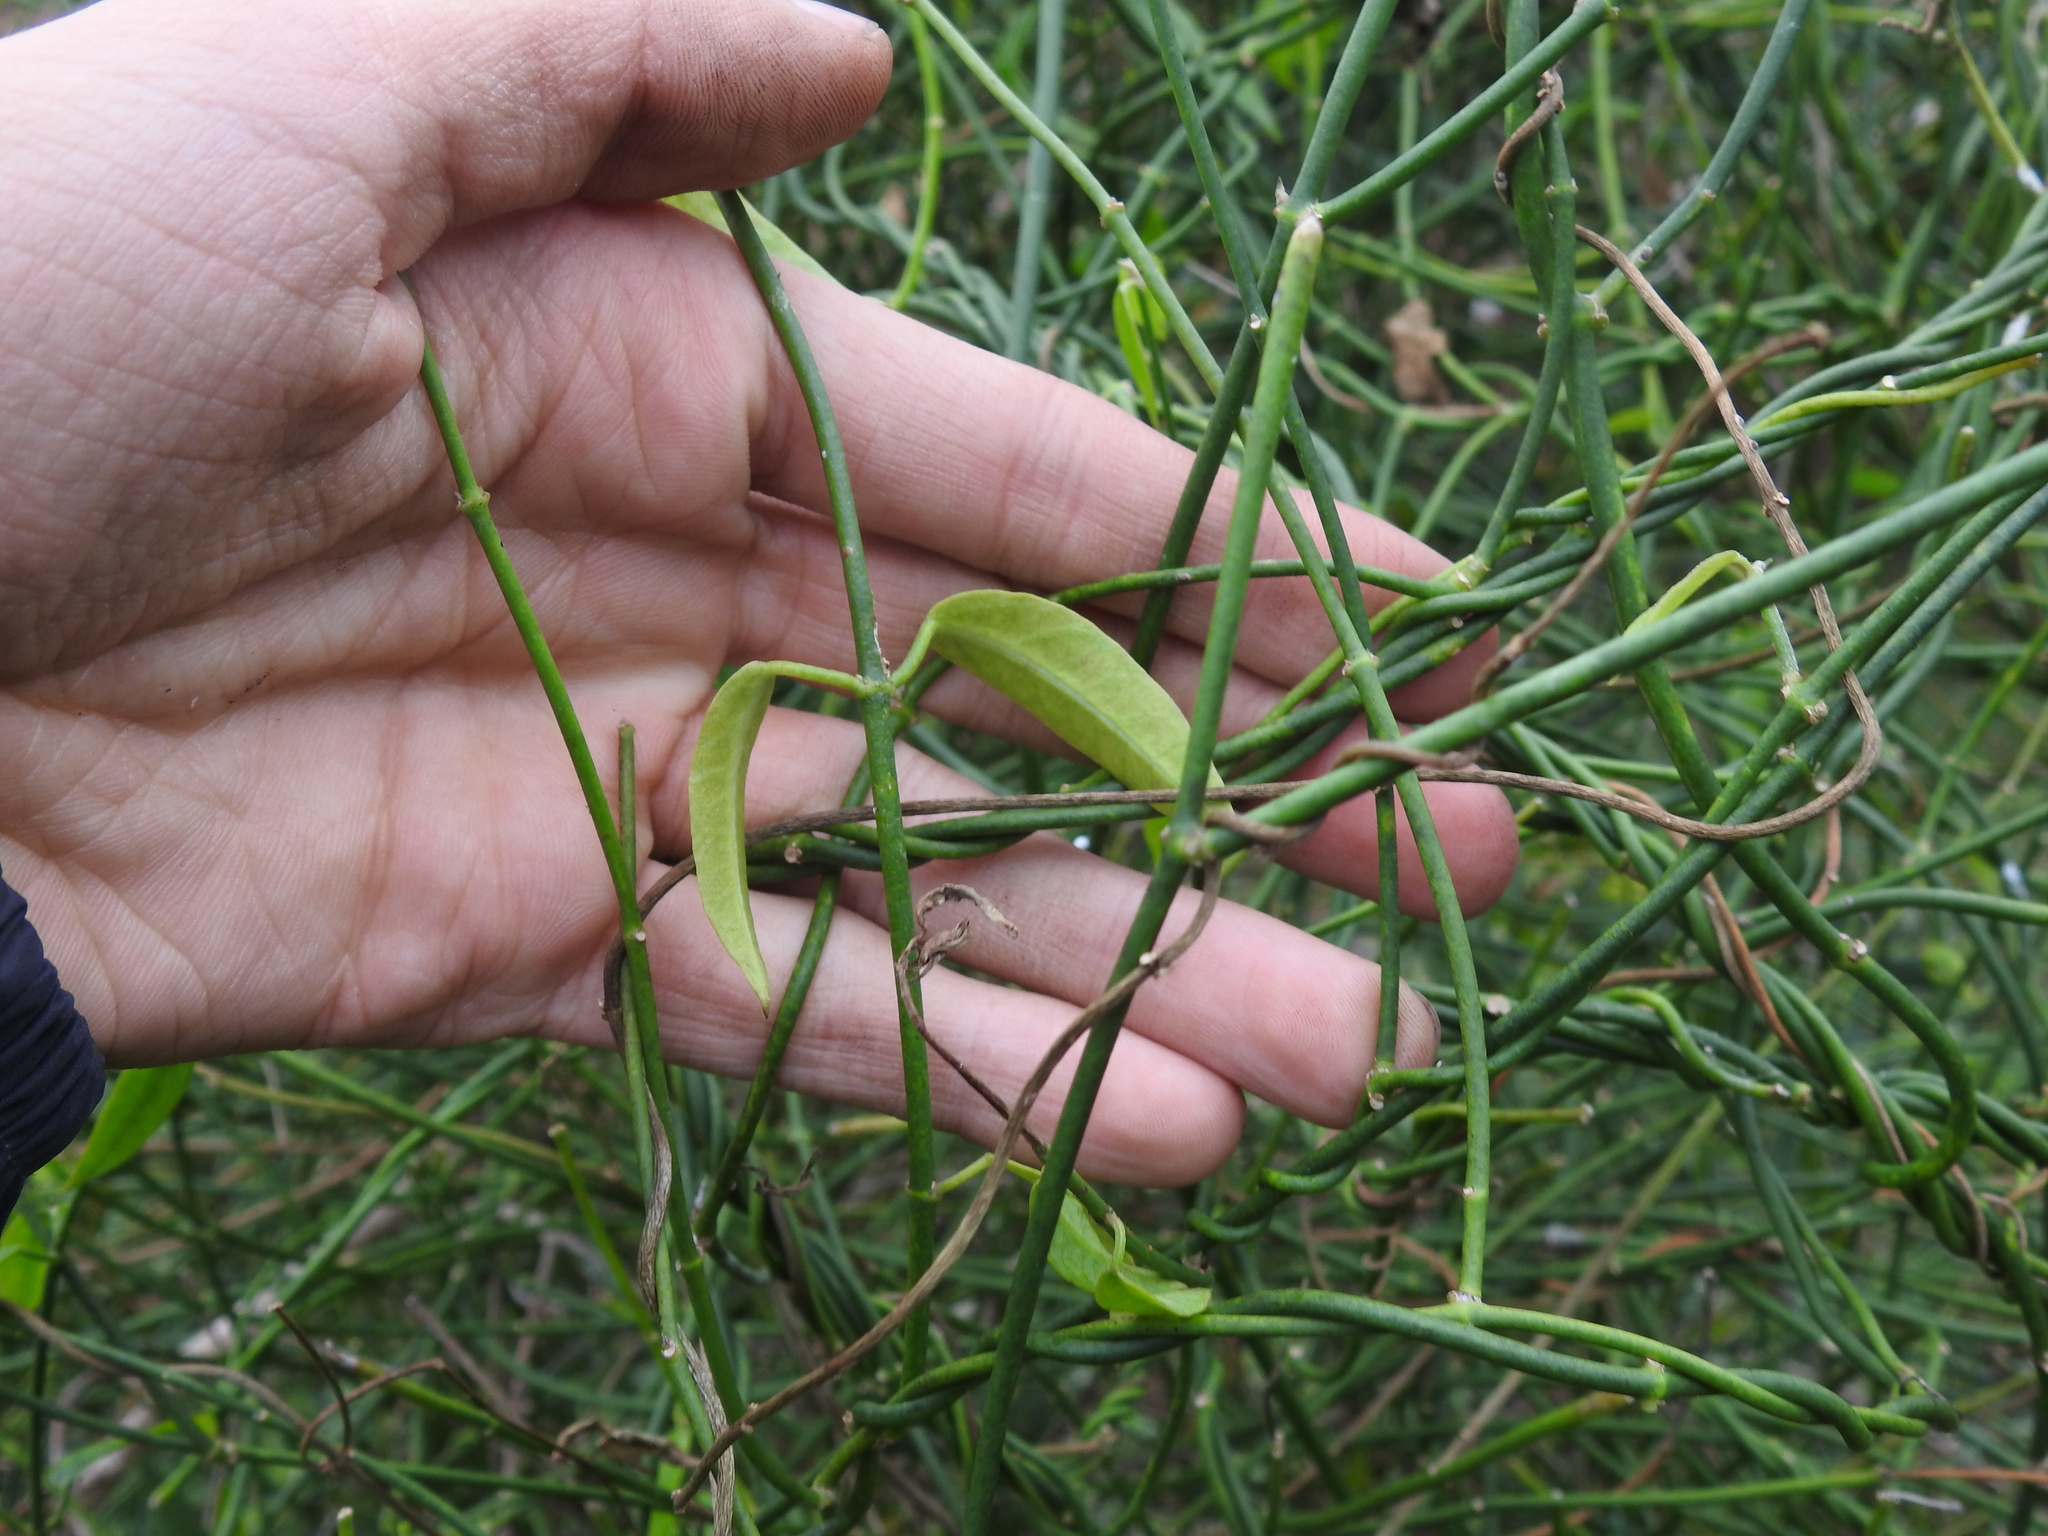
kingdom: Plantae
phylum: Tracheophyta
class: Magnoliopsida
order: Gentianales
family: Apocynaceae
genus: Funastrum
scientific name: Funastrum clausum
